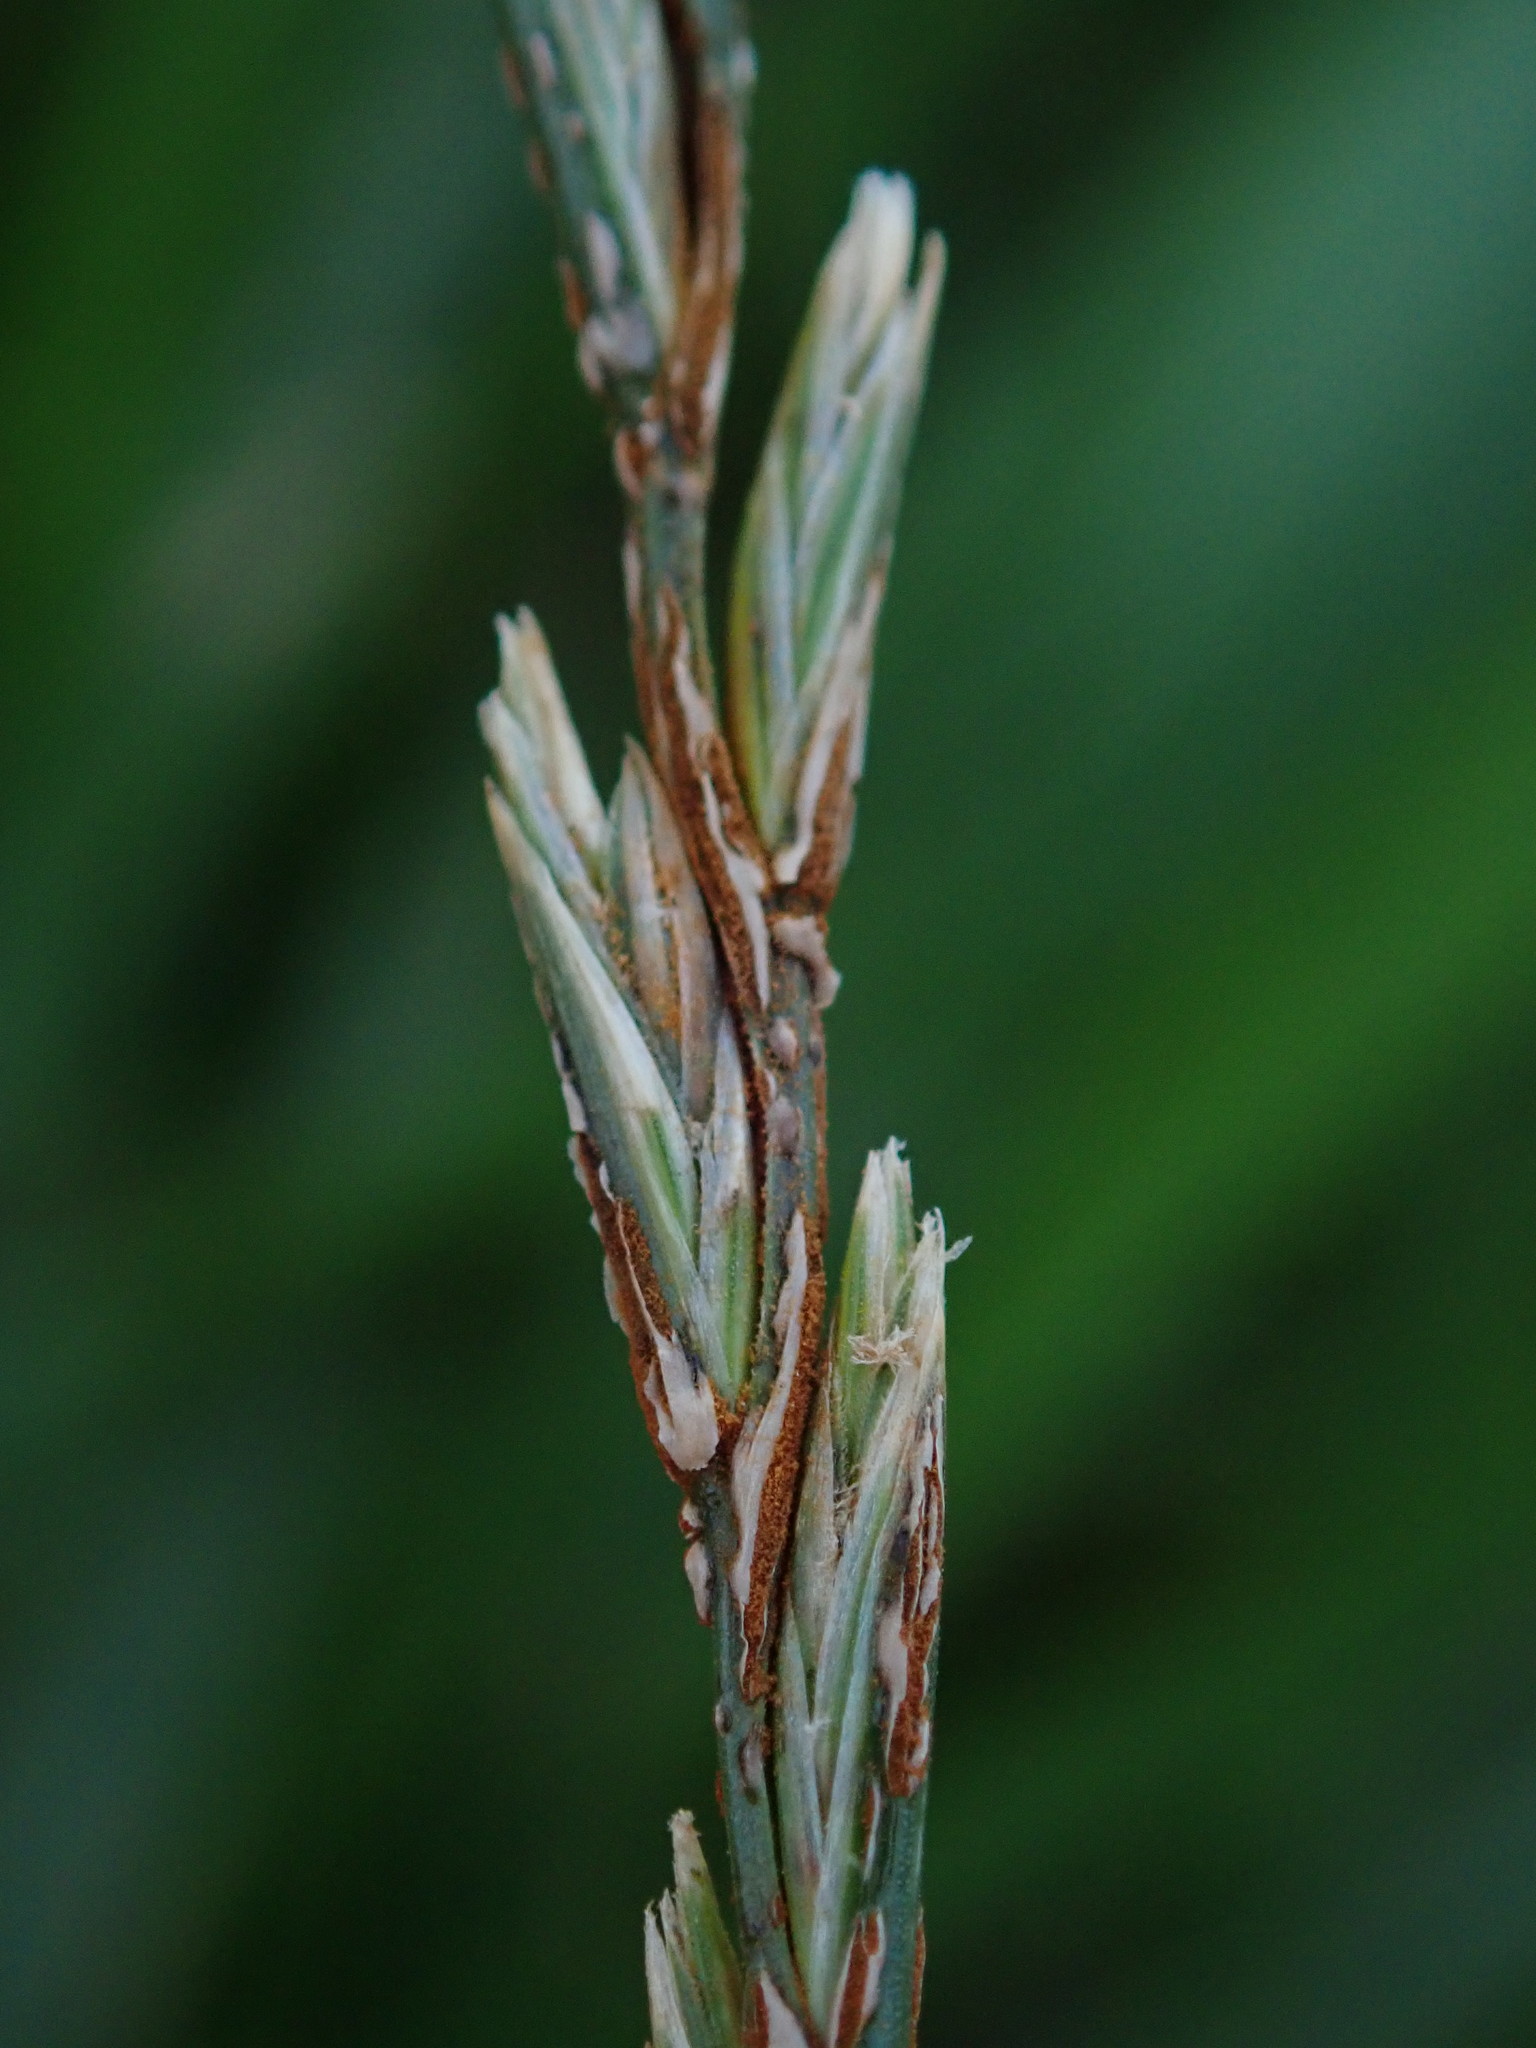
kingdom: Plantae
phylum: Tracheophyta
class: Liliopsida
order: Poales
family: Poaceae
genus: Lolium
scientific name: Lolium perenne
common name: Perennial ryegrass
